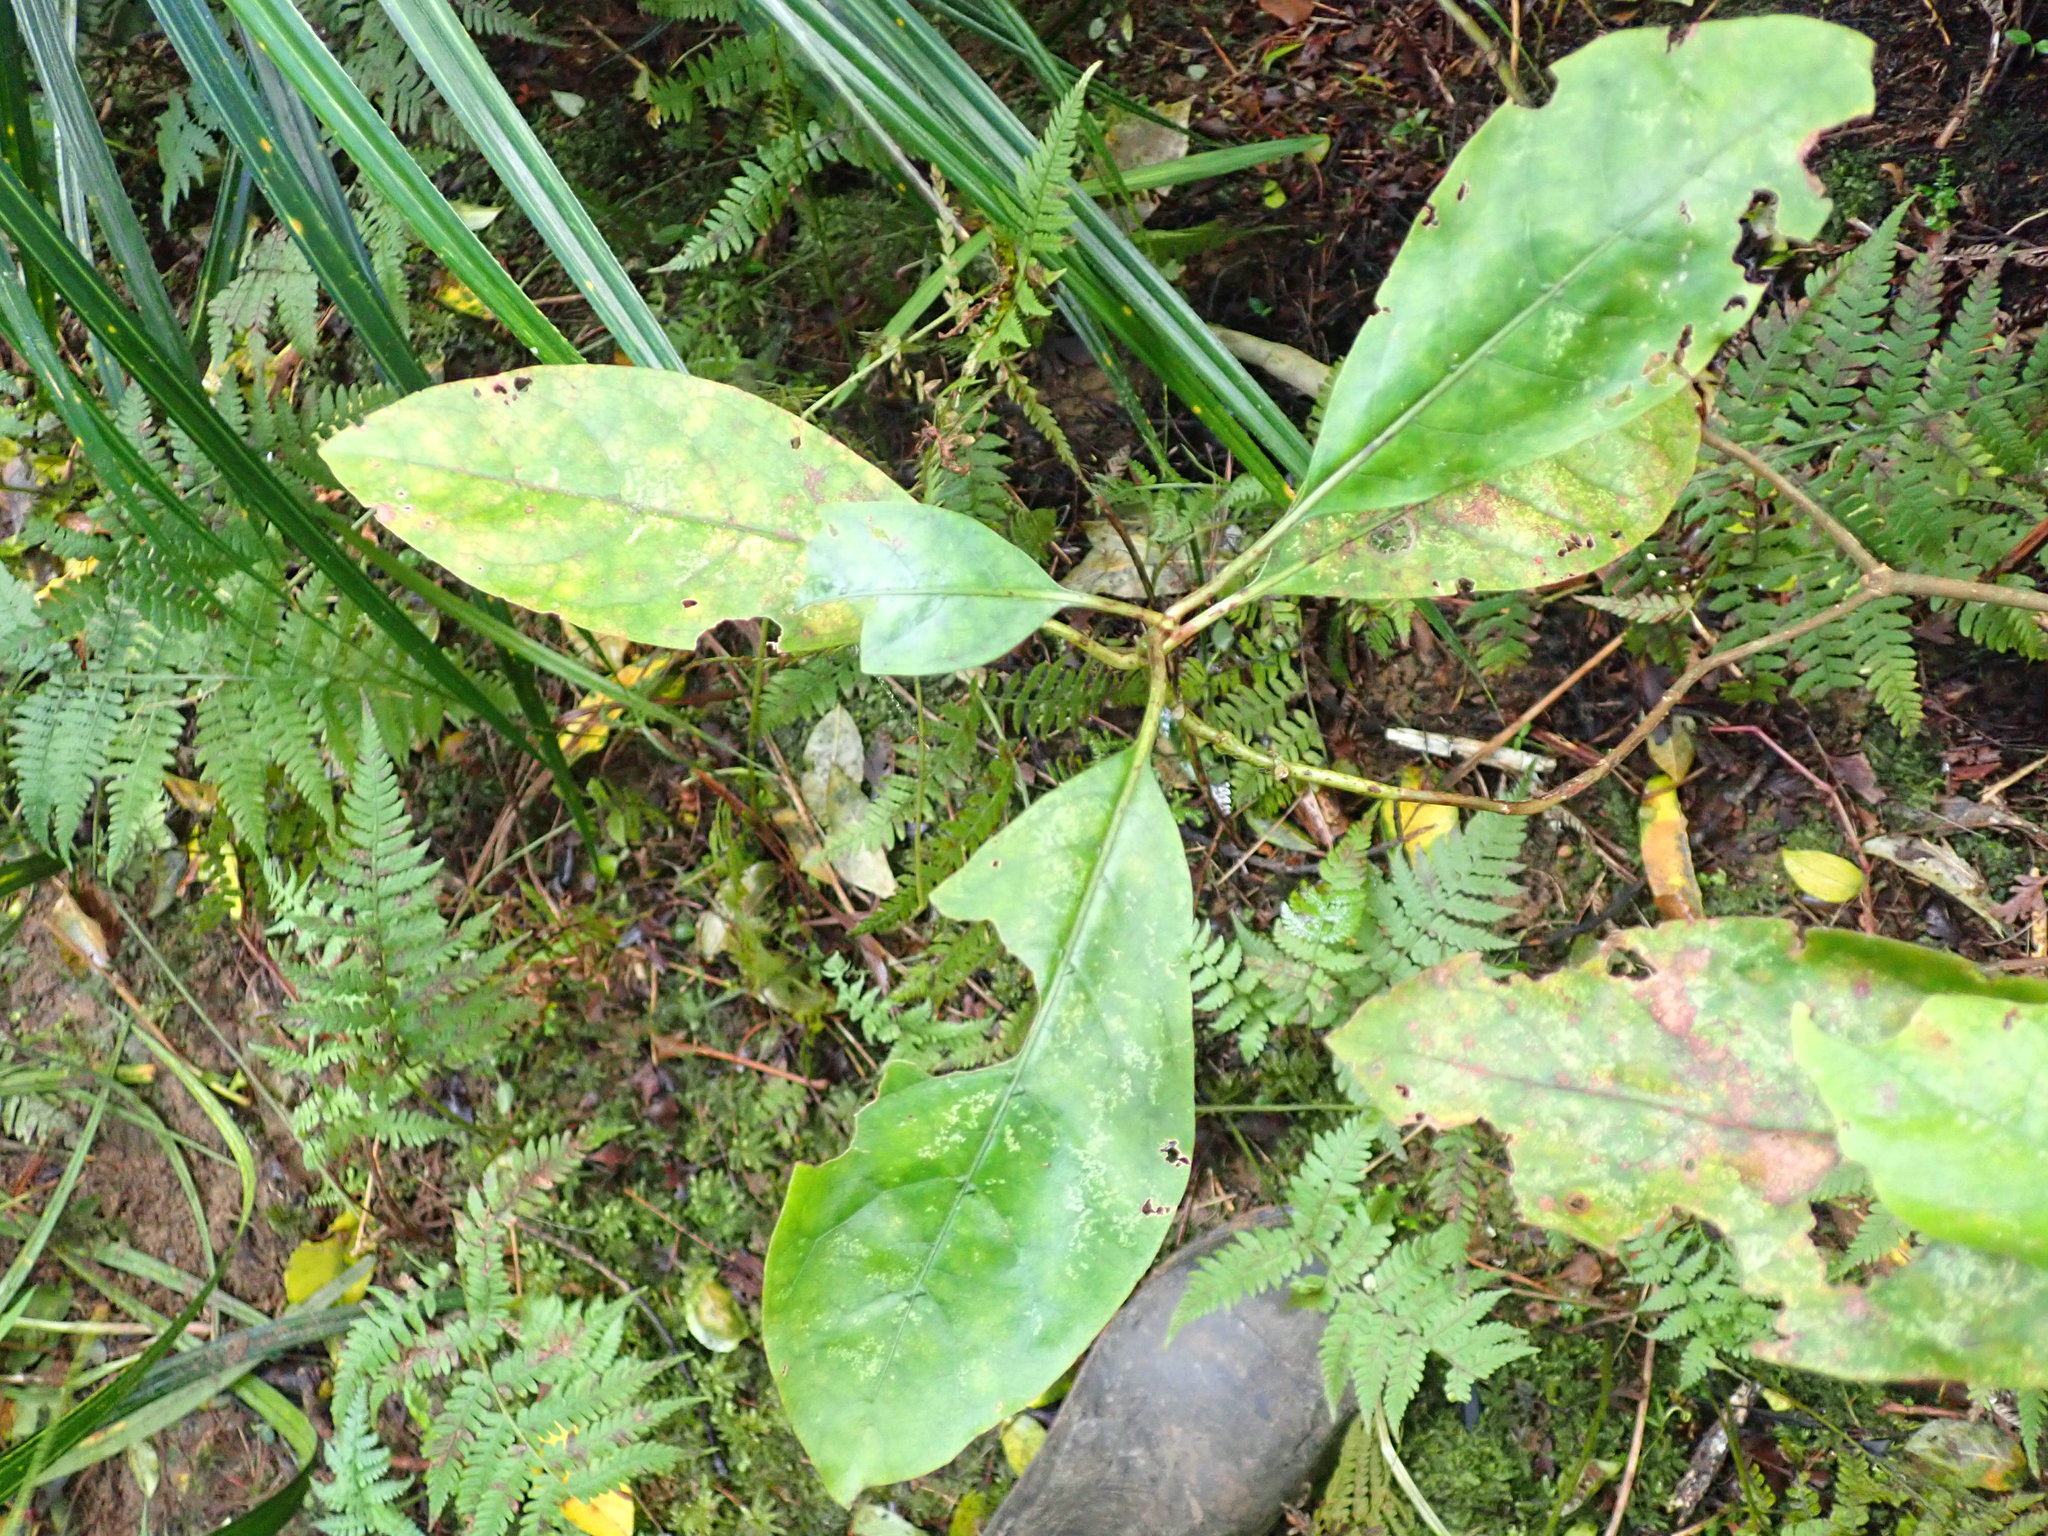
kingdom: Plantae
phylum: Tracheophyta
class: Magnoliopsida
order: Gentianales
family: Rubiaceae
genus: Coprosma
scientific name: Coprosma autumnalis
